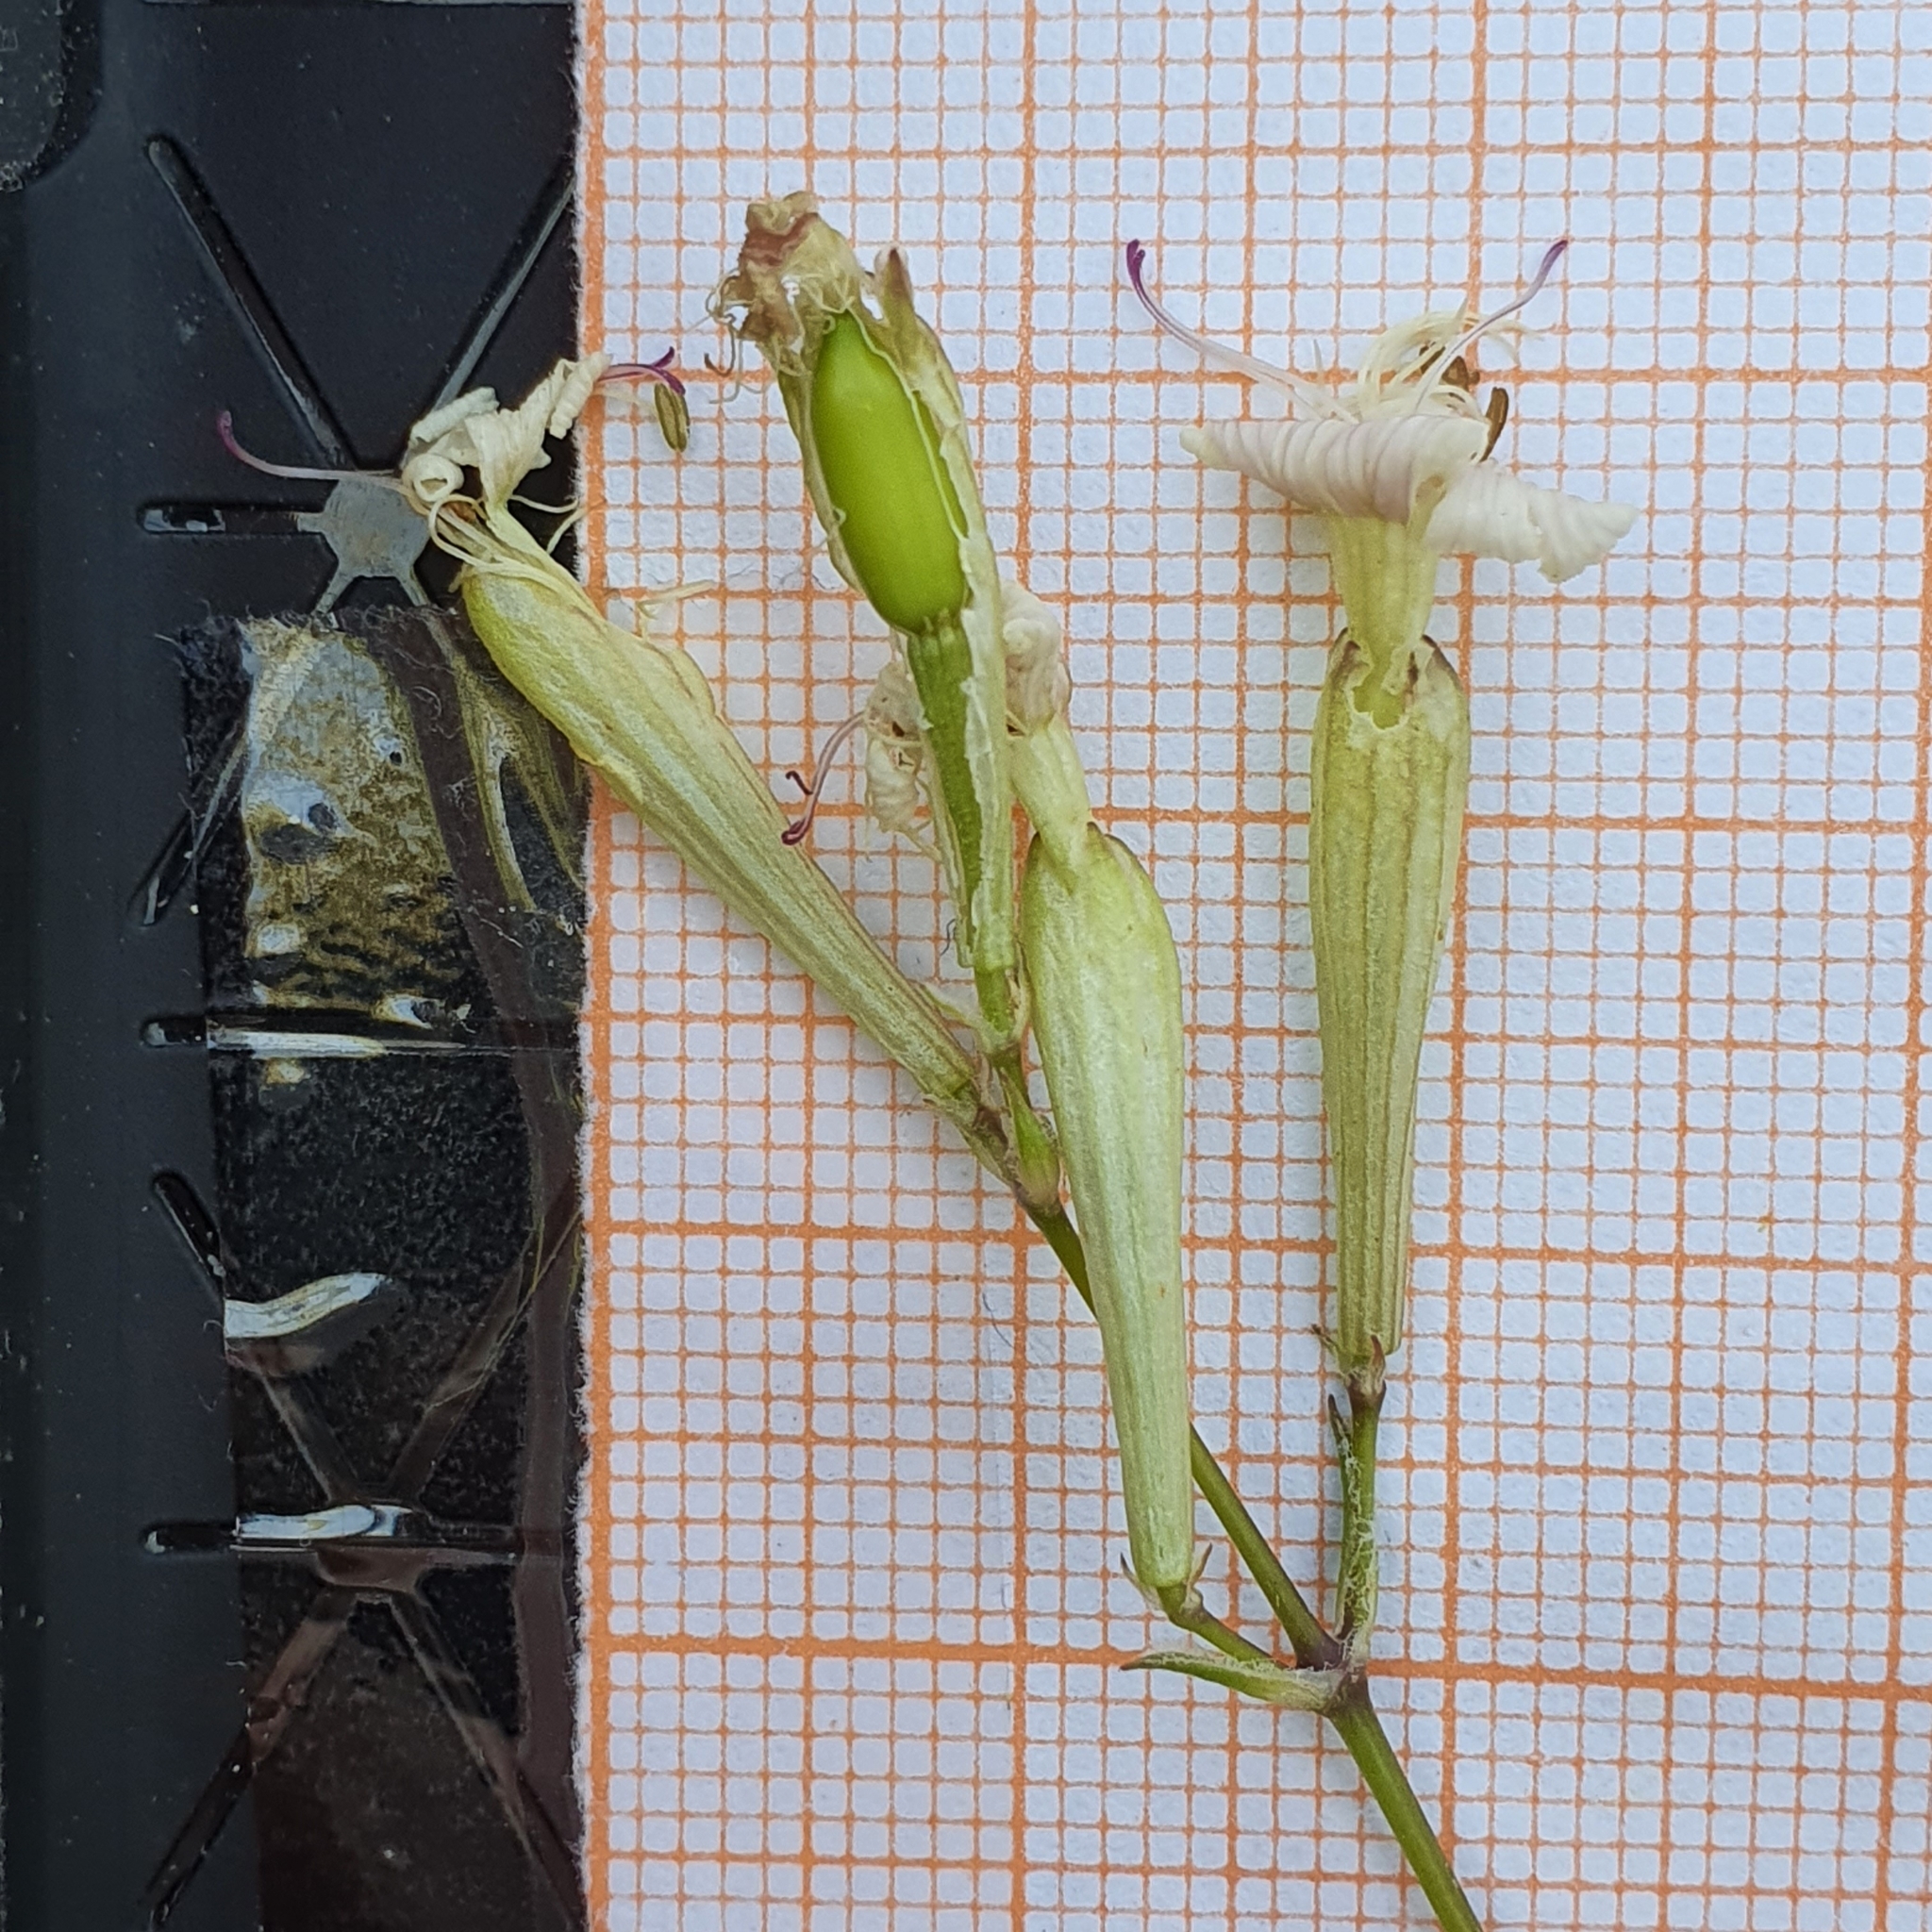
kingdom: Plantae
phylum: Tracheophyta
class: Magnoliopsida
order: Caryophyllales
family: Caryophyllaceae
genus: Silene
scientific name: Silene patula
